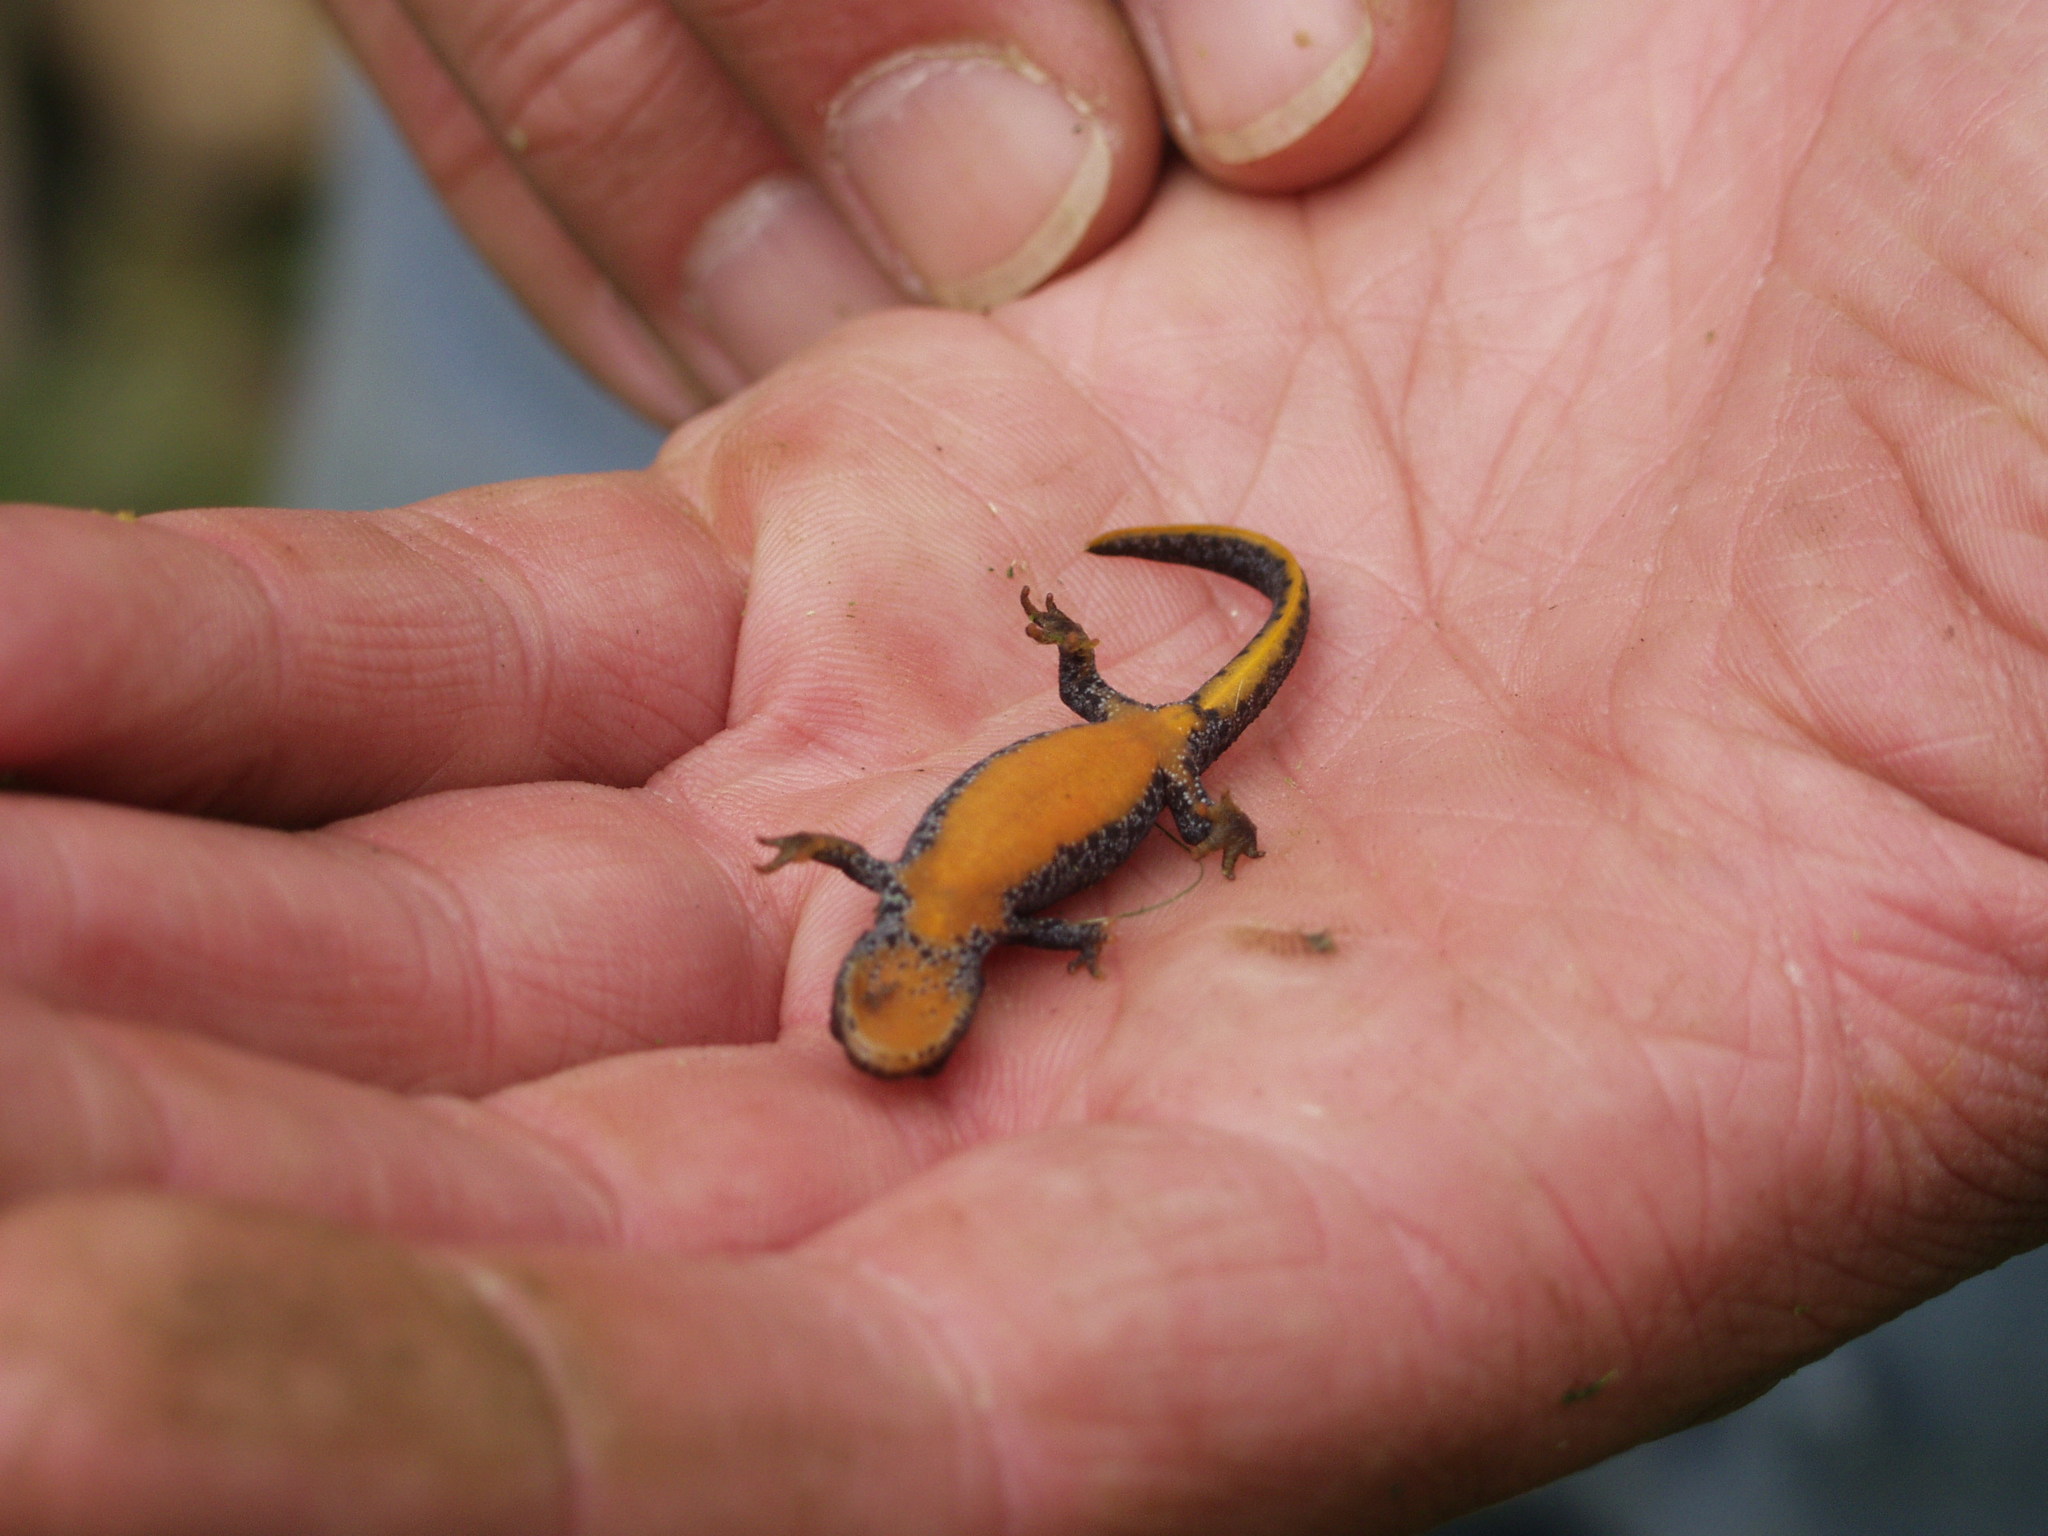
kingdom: Animalia
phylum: Chordata
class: Amphibia
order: Caudata
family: Salamandridae
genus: Ichthyosaura
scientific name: Ichthyosaura alpestris
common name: Alpine newt
